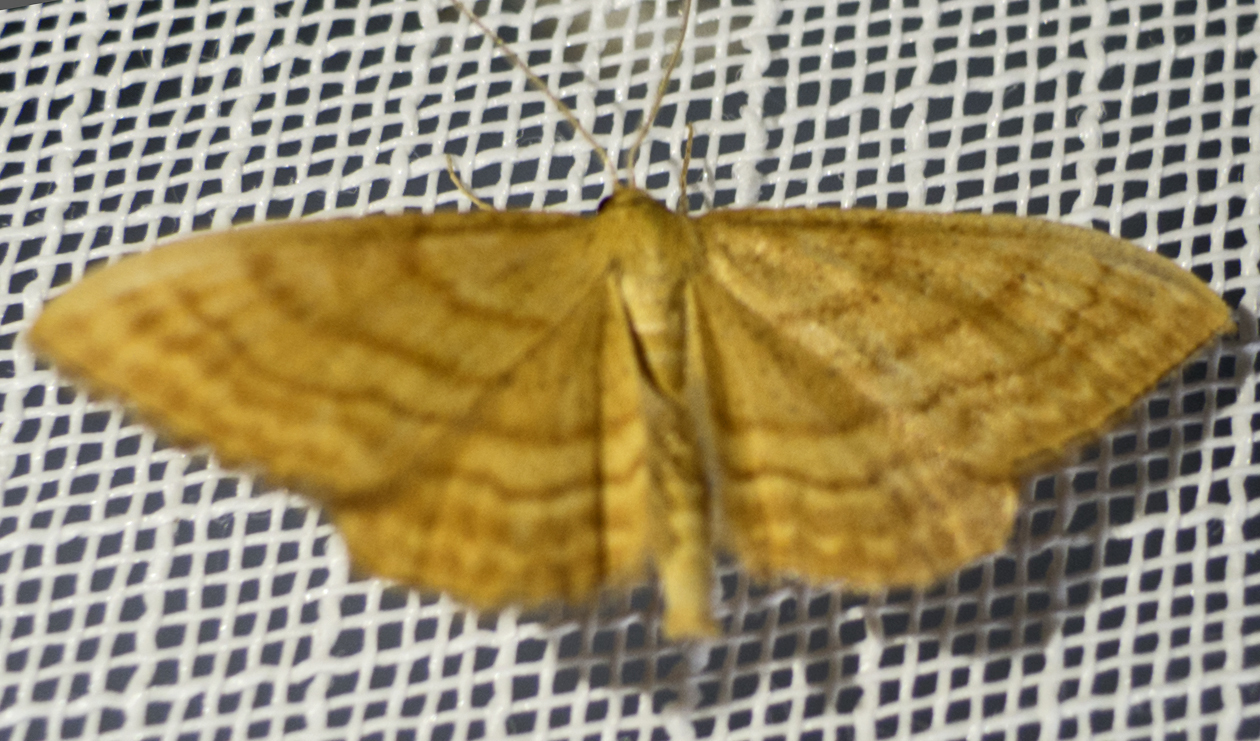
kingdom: Animalia
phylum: Arthropoda
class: Insecta
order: Lepidoptera
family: Geometridae
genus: Idaea
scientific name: Idaea ochrata
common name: Bright wave
